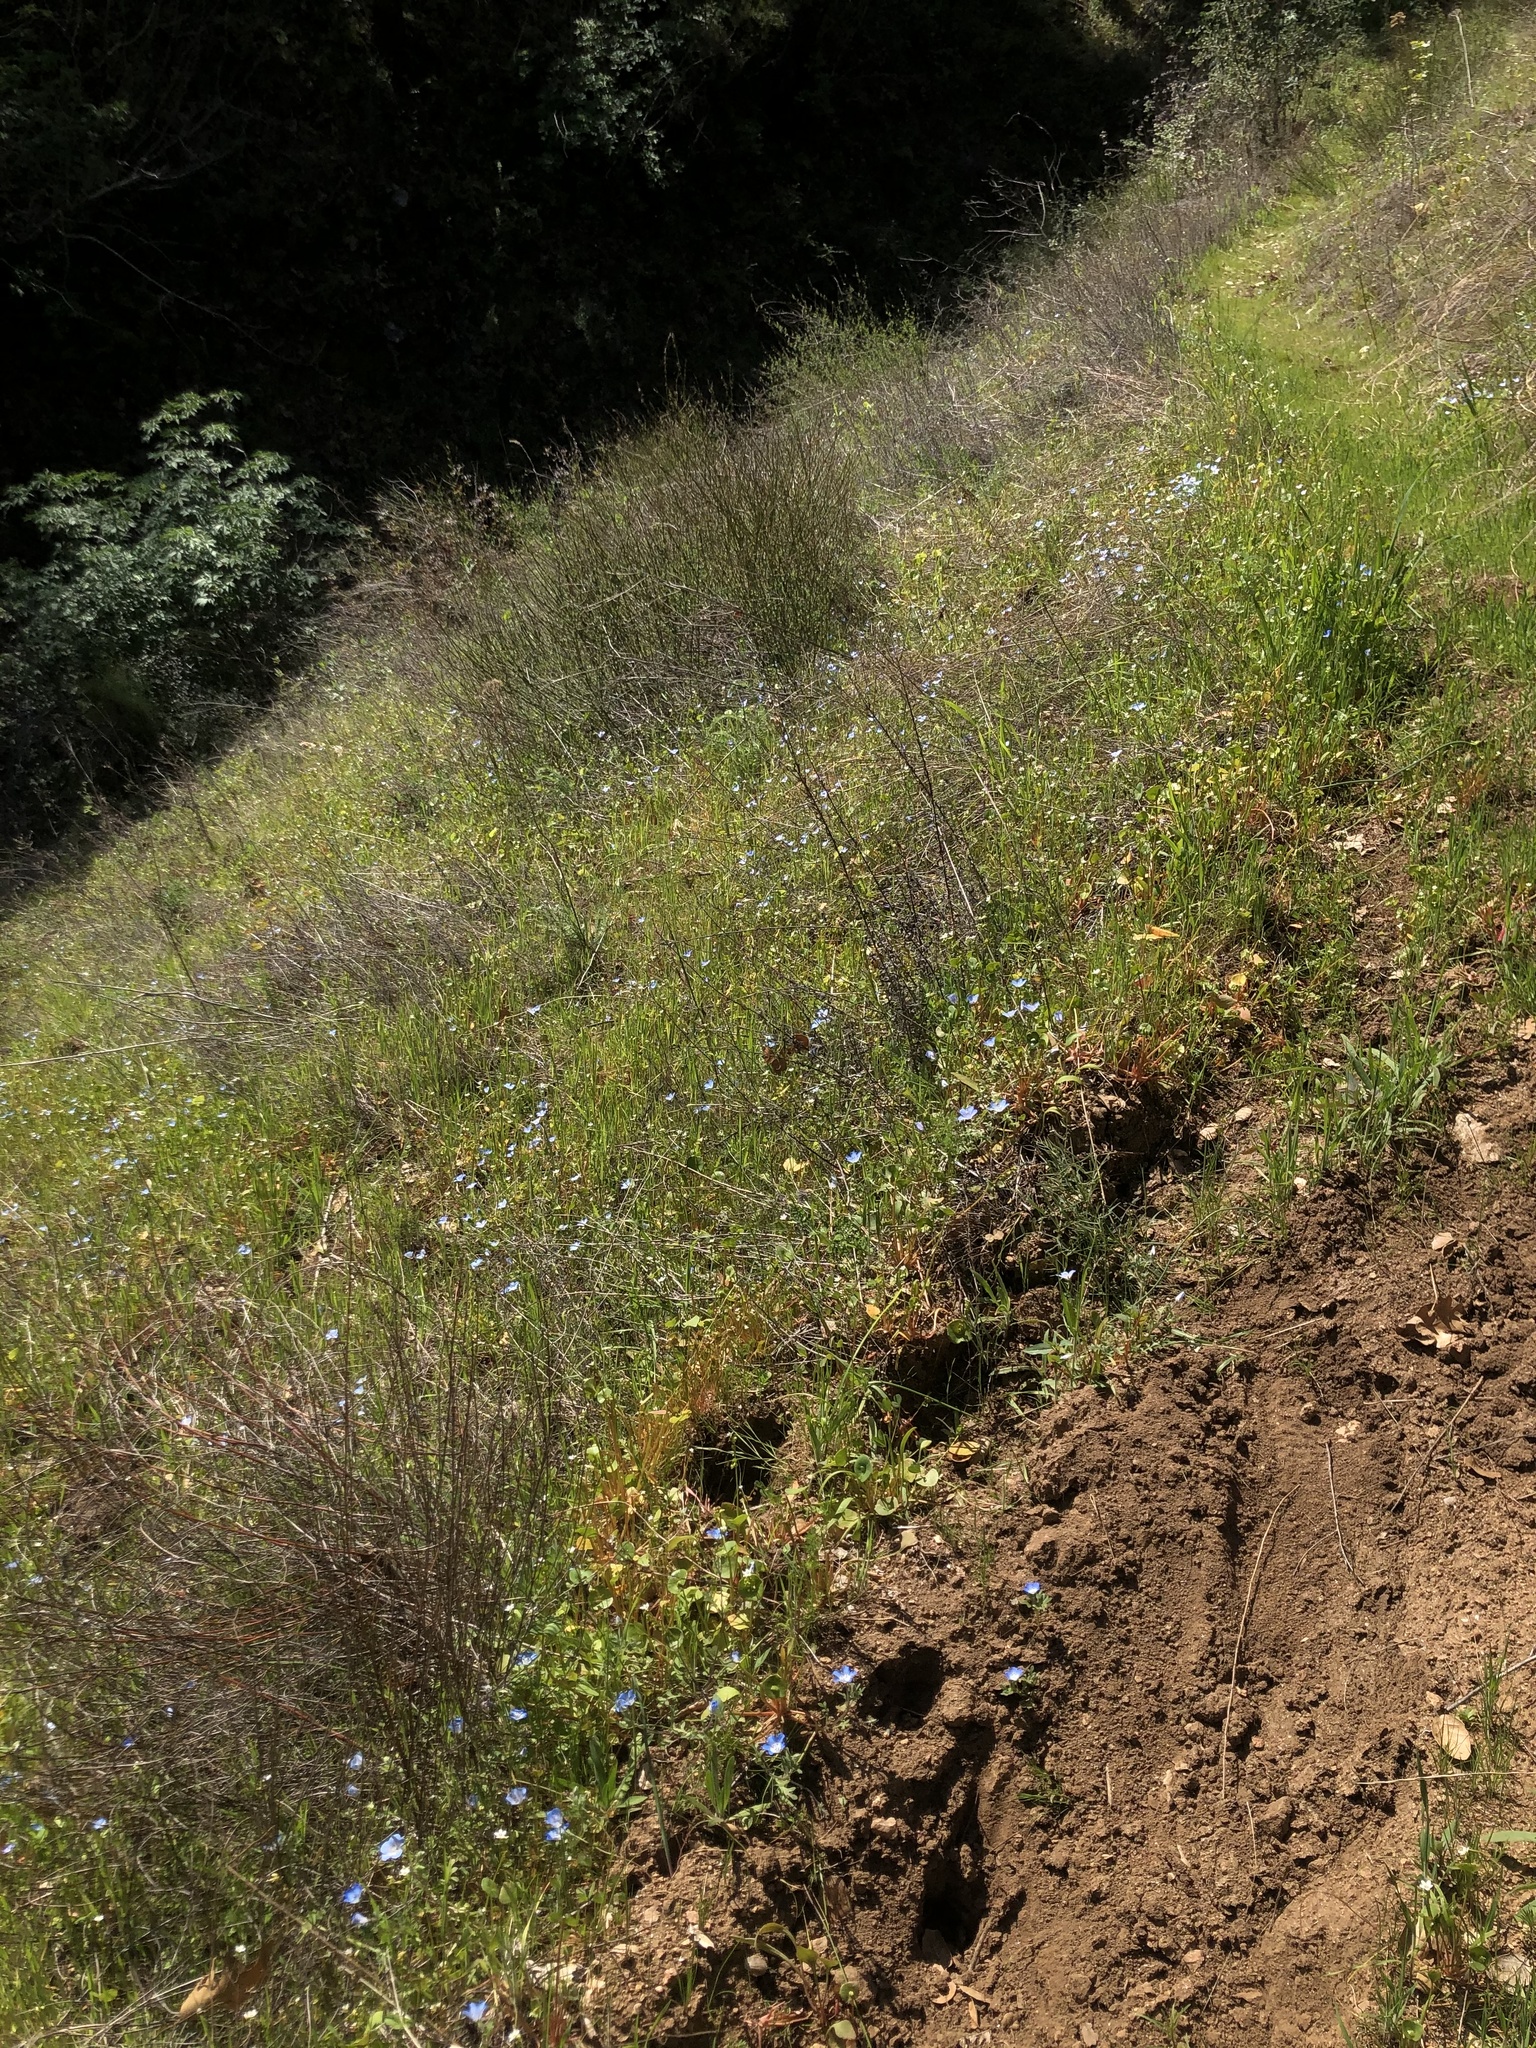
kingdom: Plantae
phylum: Tracheophyta
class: Magnoliopsida
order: Boraginales
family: Hydrophyllaceae
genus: Nemophila
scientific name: Nemophila menziesii
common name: Baby's-blue-eyes
